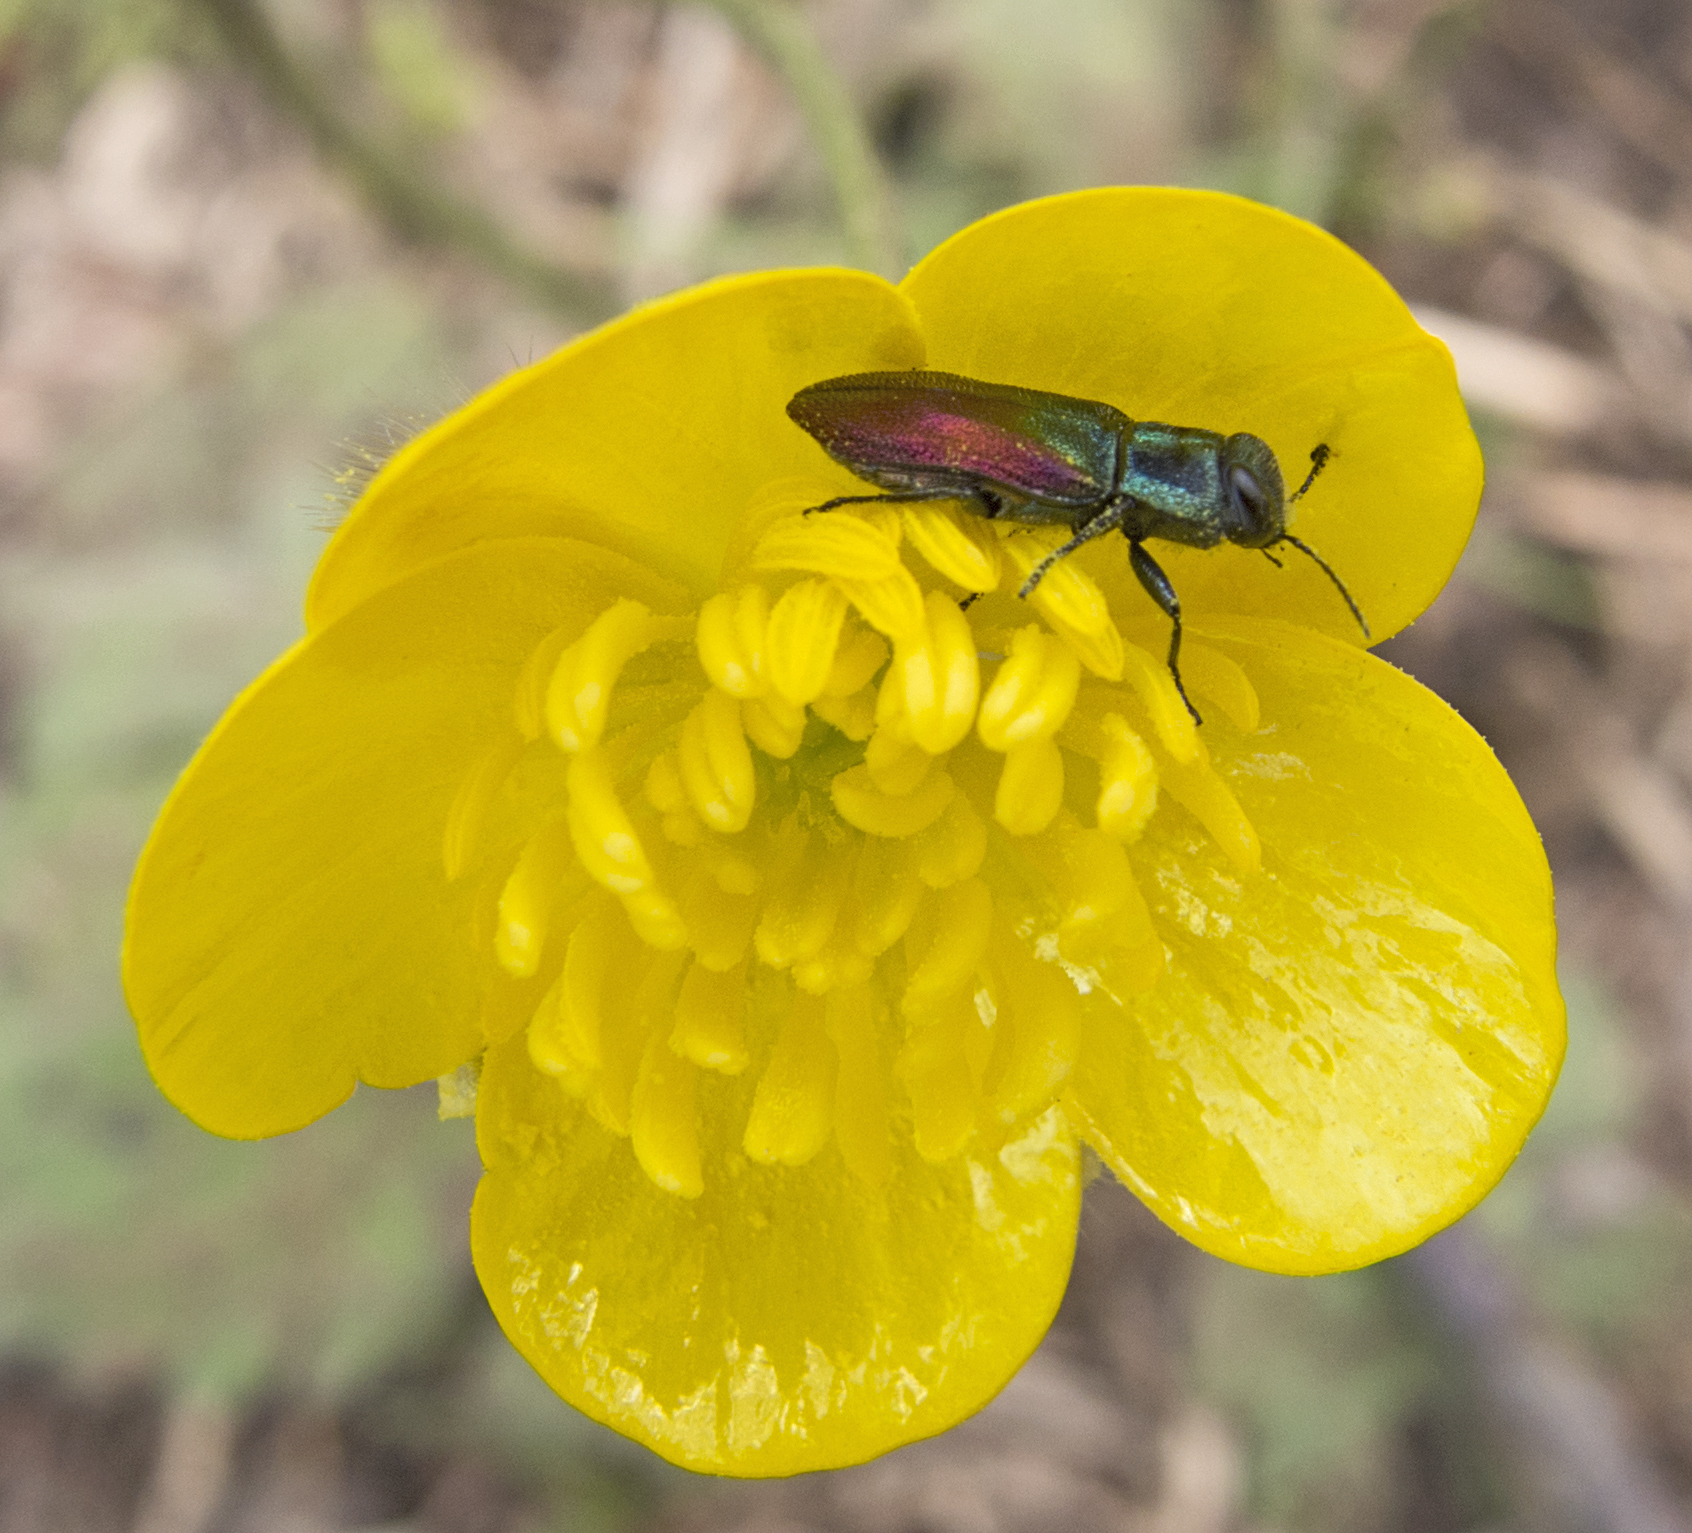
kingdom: Animalia
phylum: Arthropoda
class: Insecta
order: Coleoptera
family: Buprestidae
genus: Anthaxia
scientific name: Anthaxia salicis
